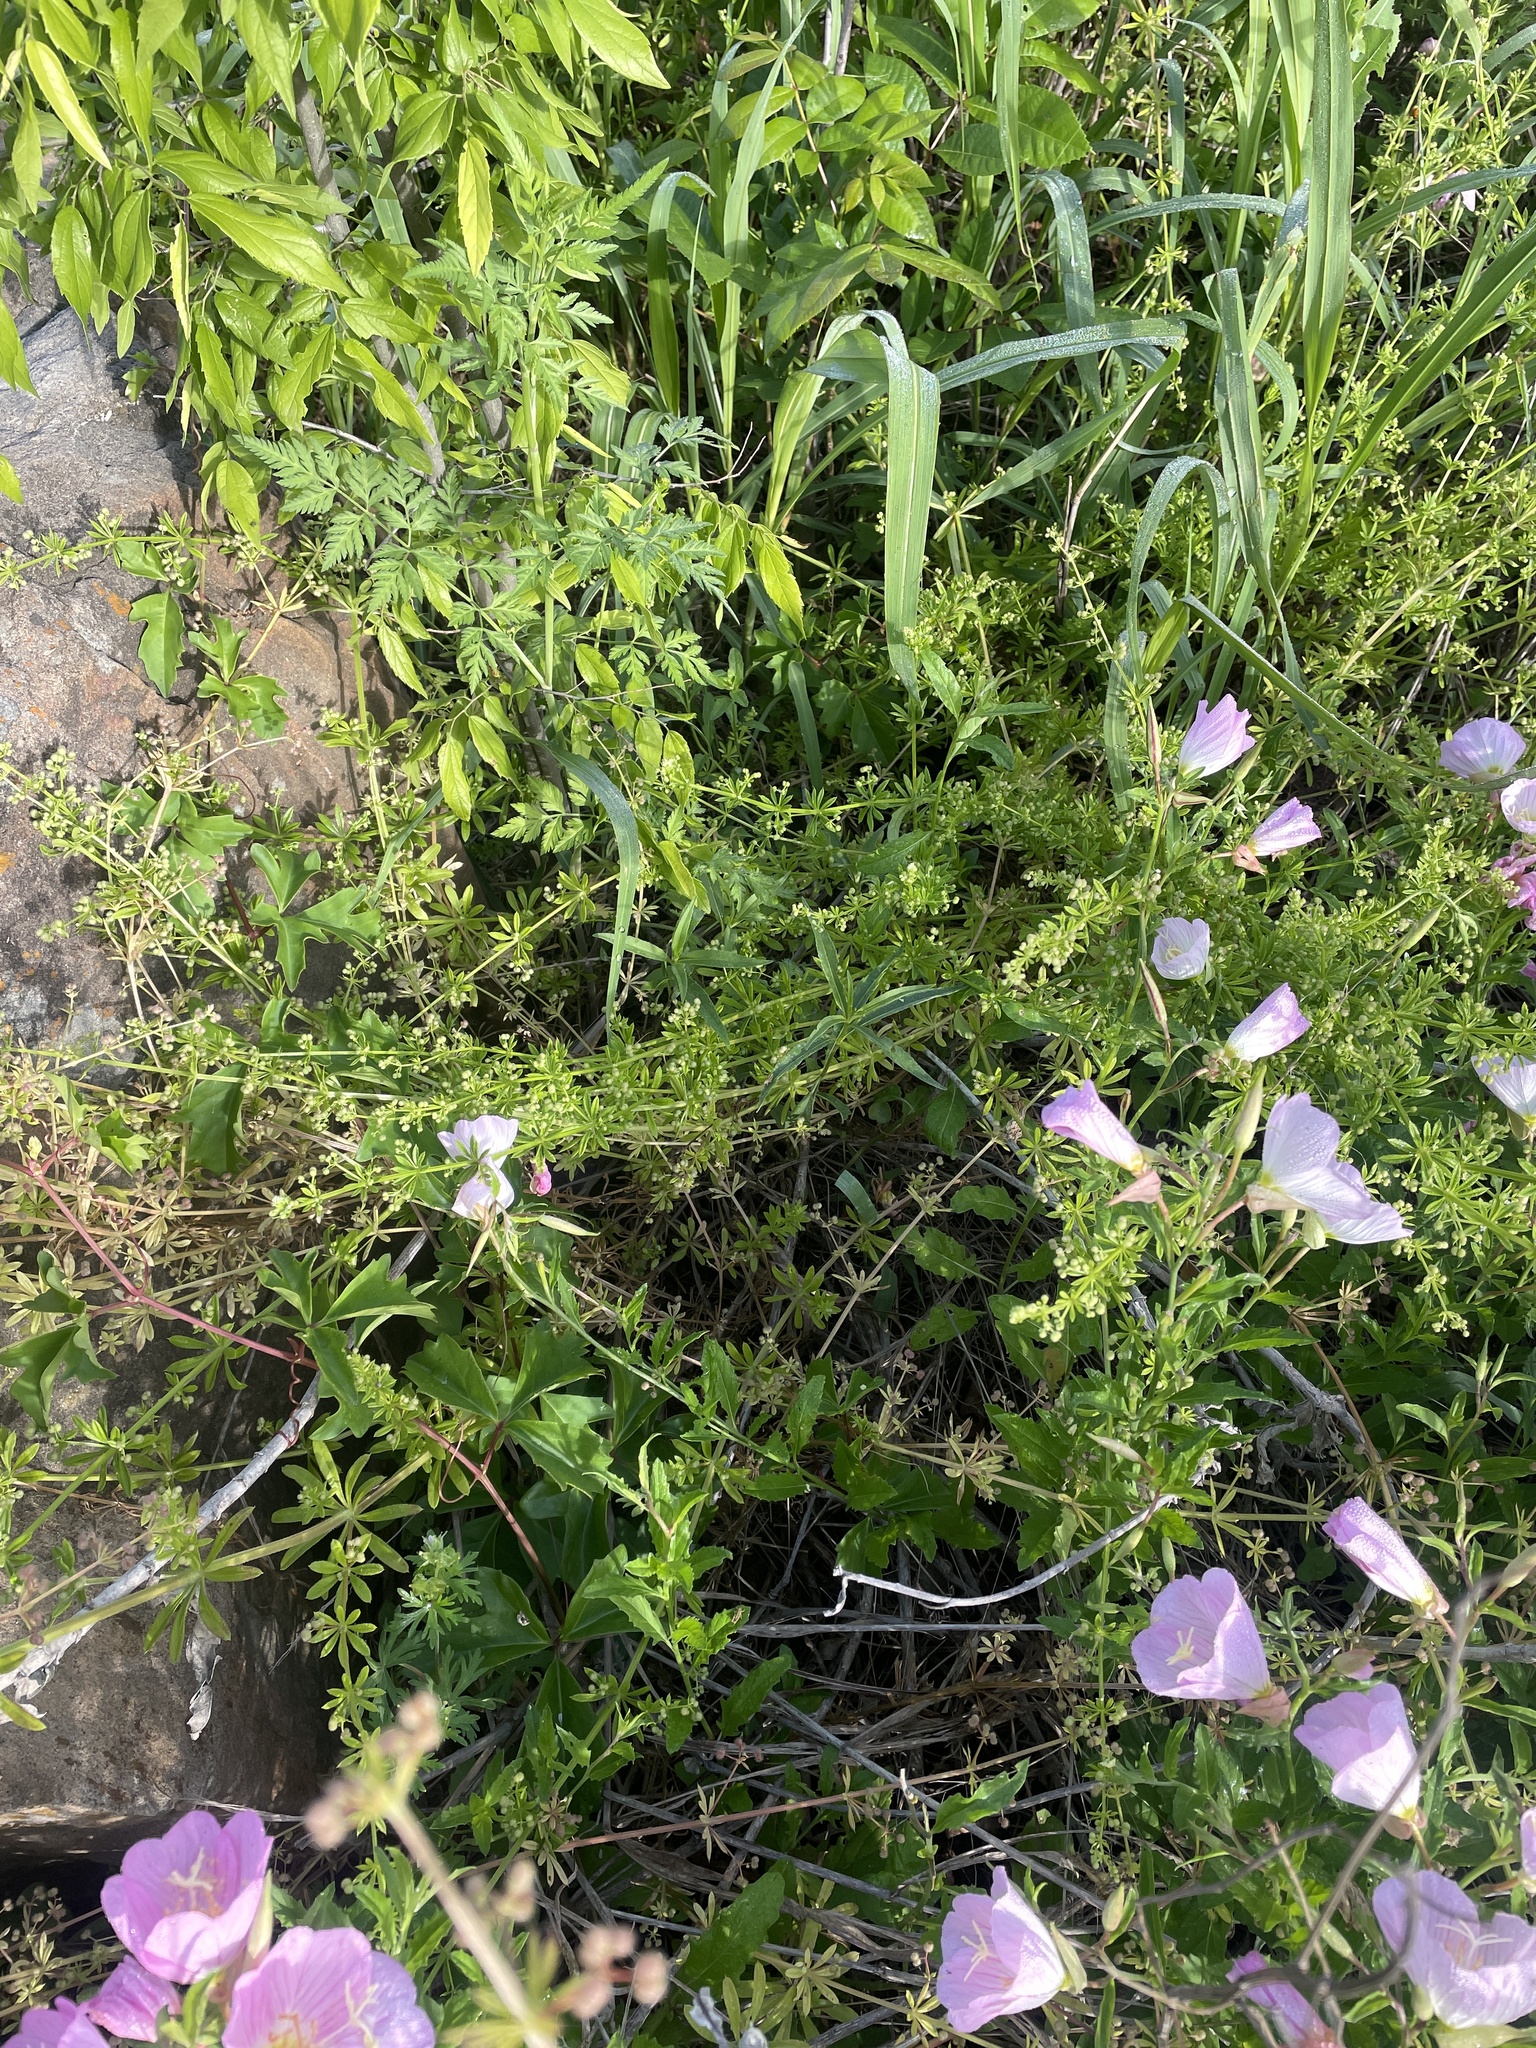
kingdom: Plantae
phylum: Tracheophyta
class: Magnoliopsida
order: Gentianales
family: Rubiaceae
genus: Galium
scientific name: Galium aparine
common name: Cleavers
